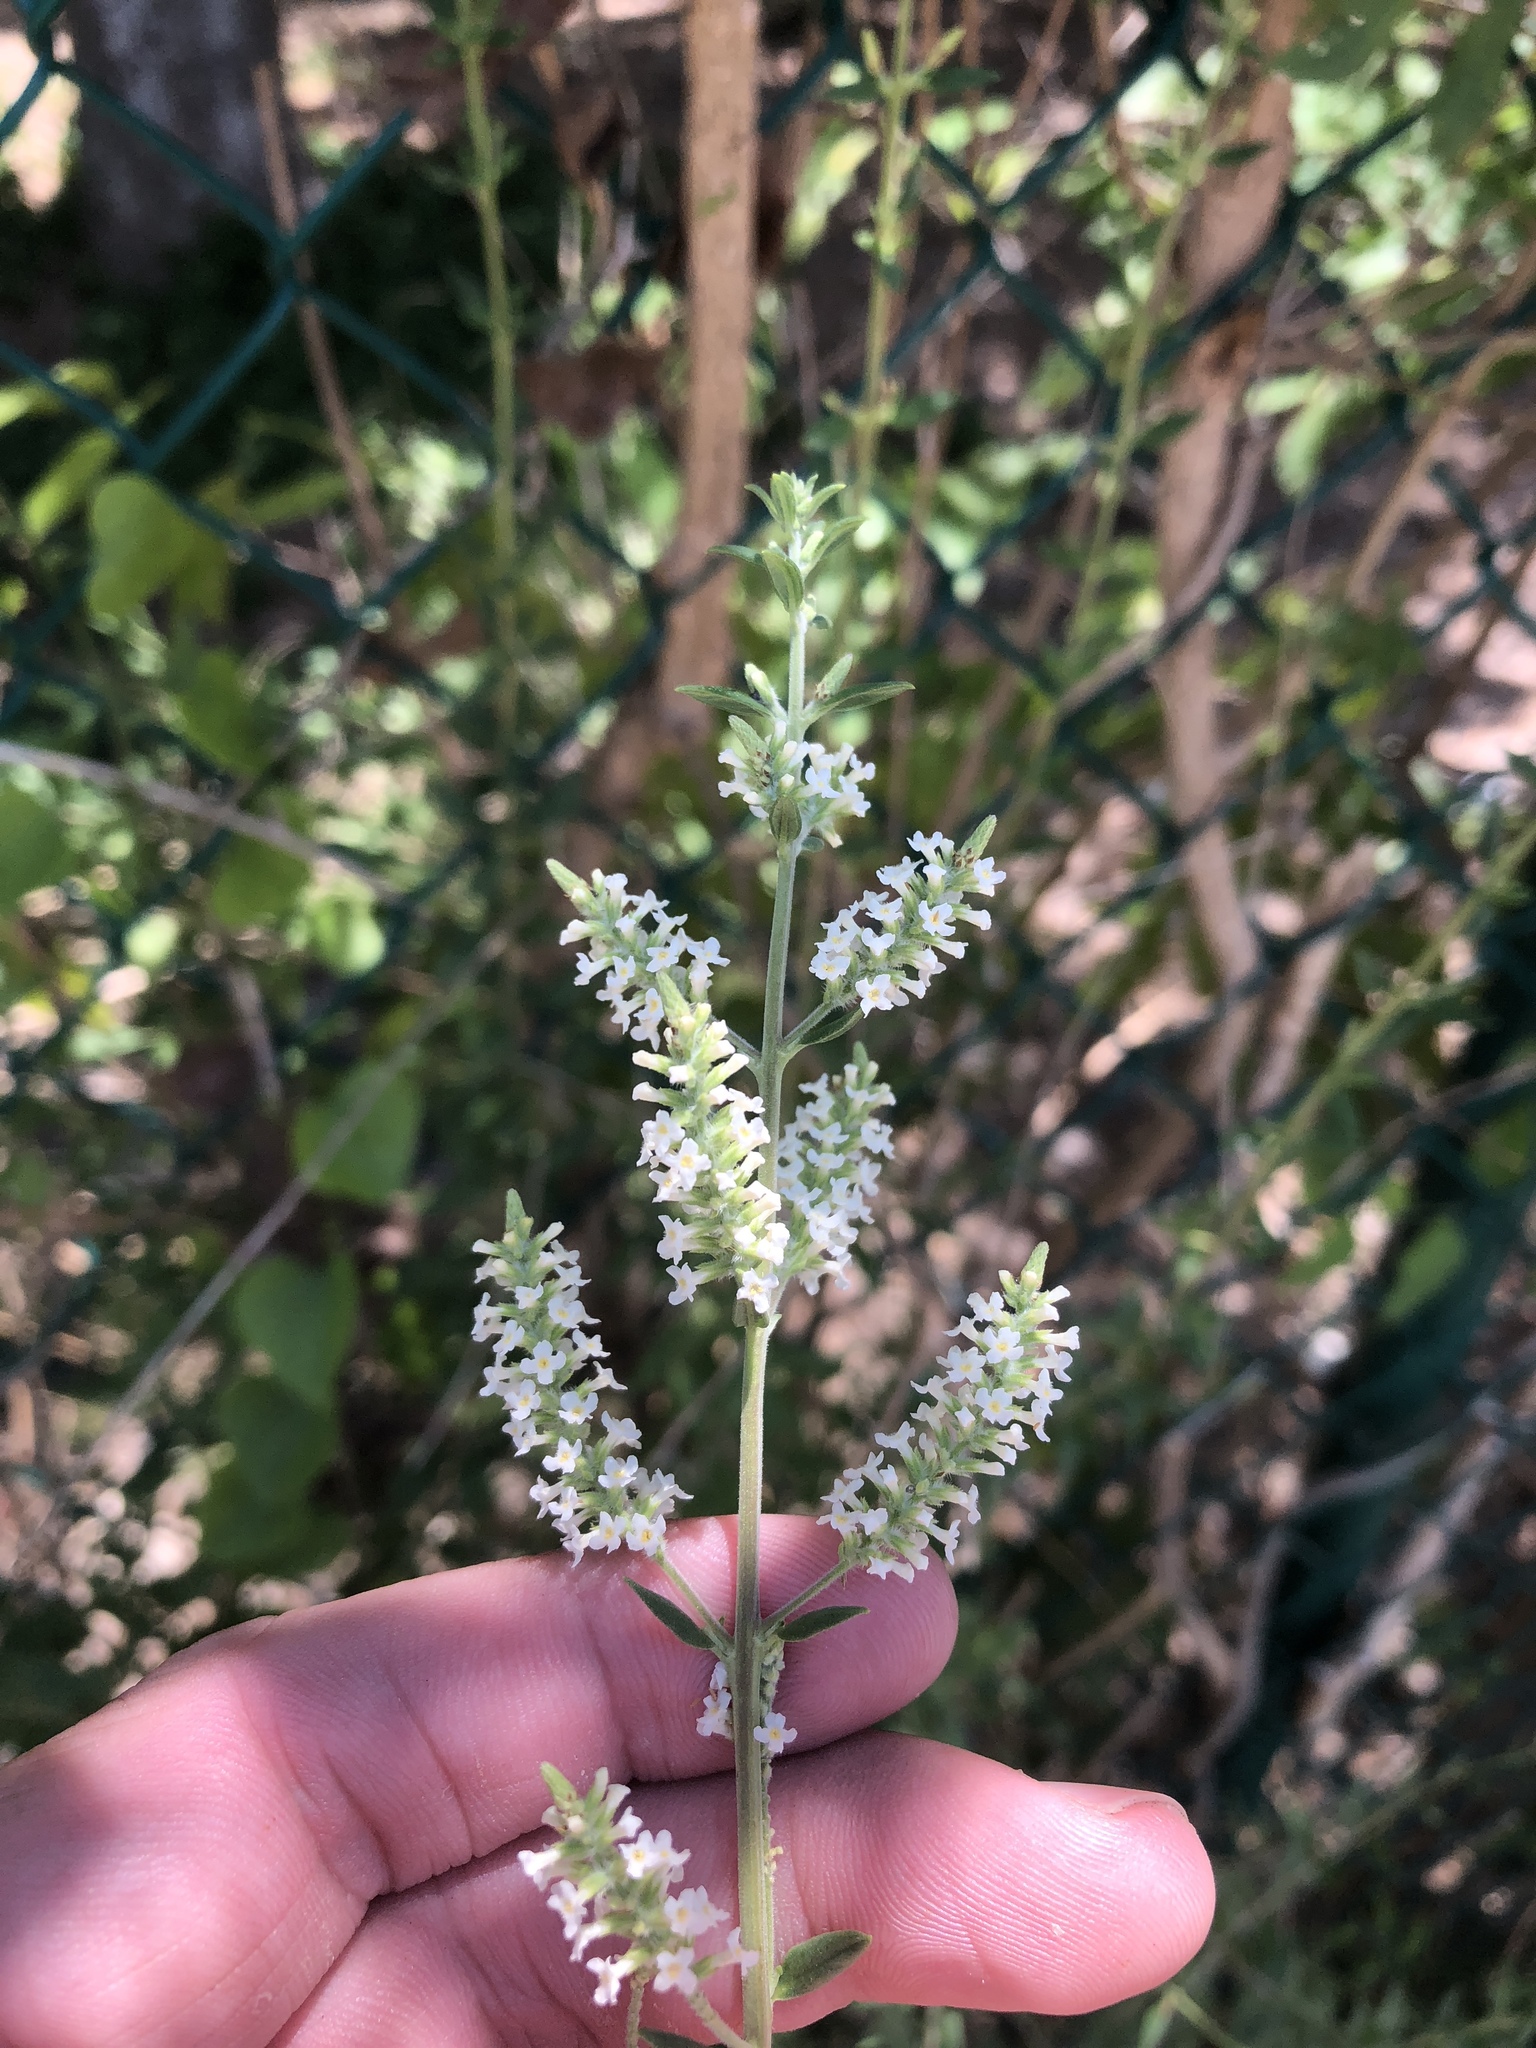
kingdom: Plantae
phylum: Tracheophyta
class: Magnoliopsida
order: Lamiales
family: Verbenaceae
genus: Aloysia
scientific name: Aloysia gratissima
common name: Common bee-brush
